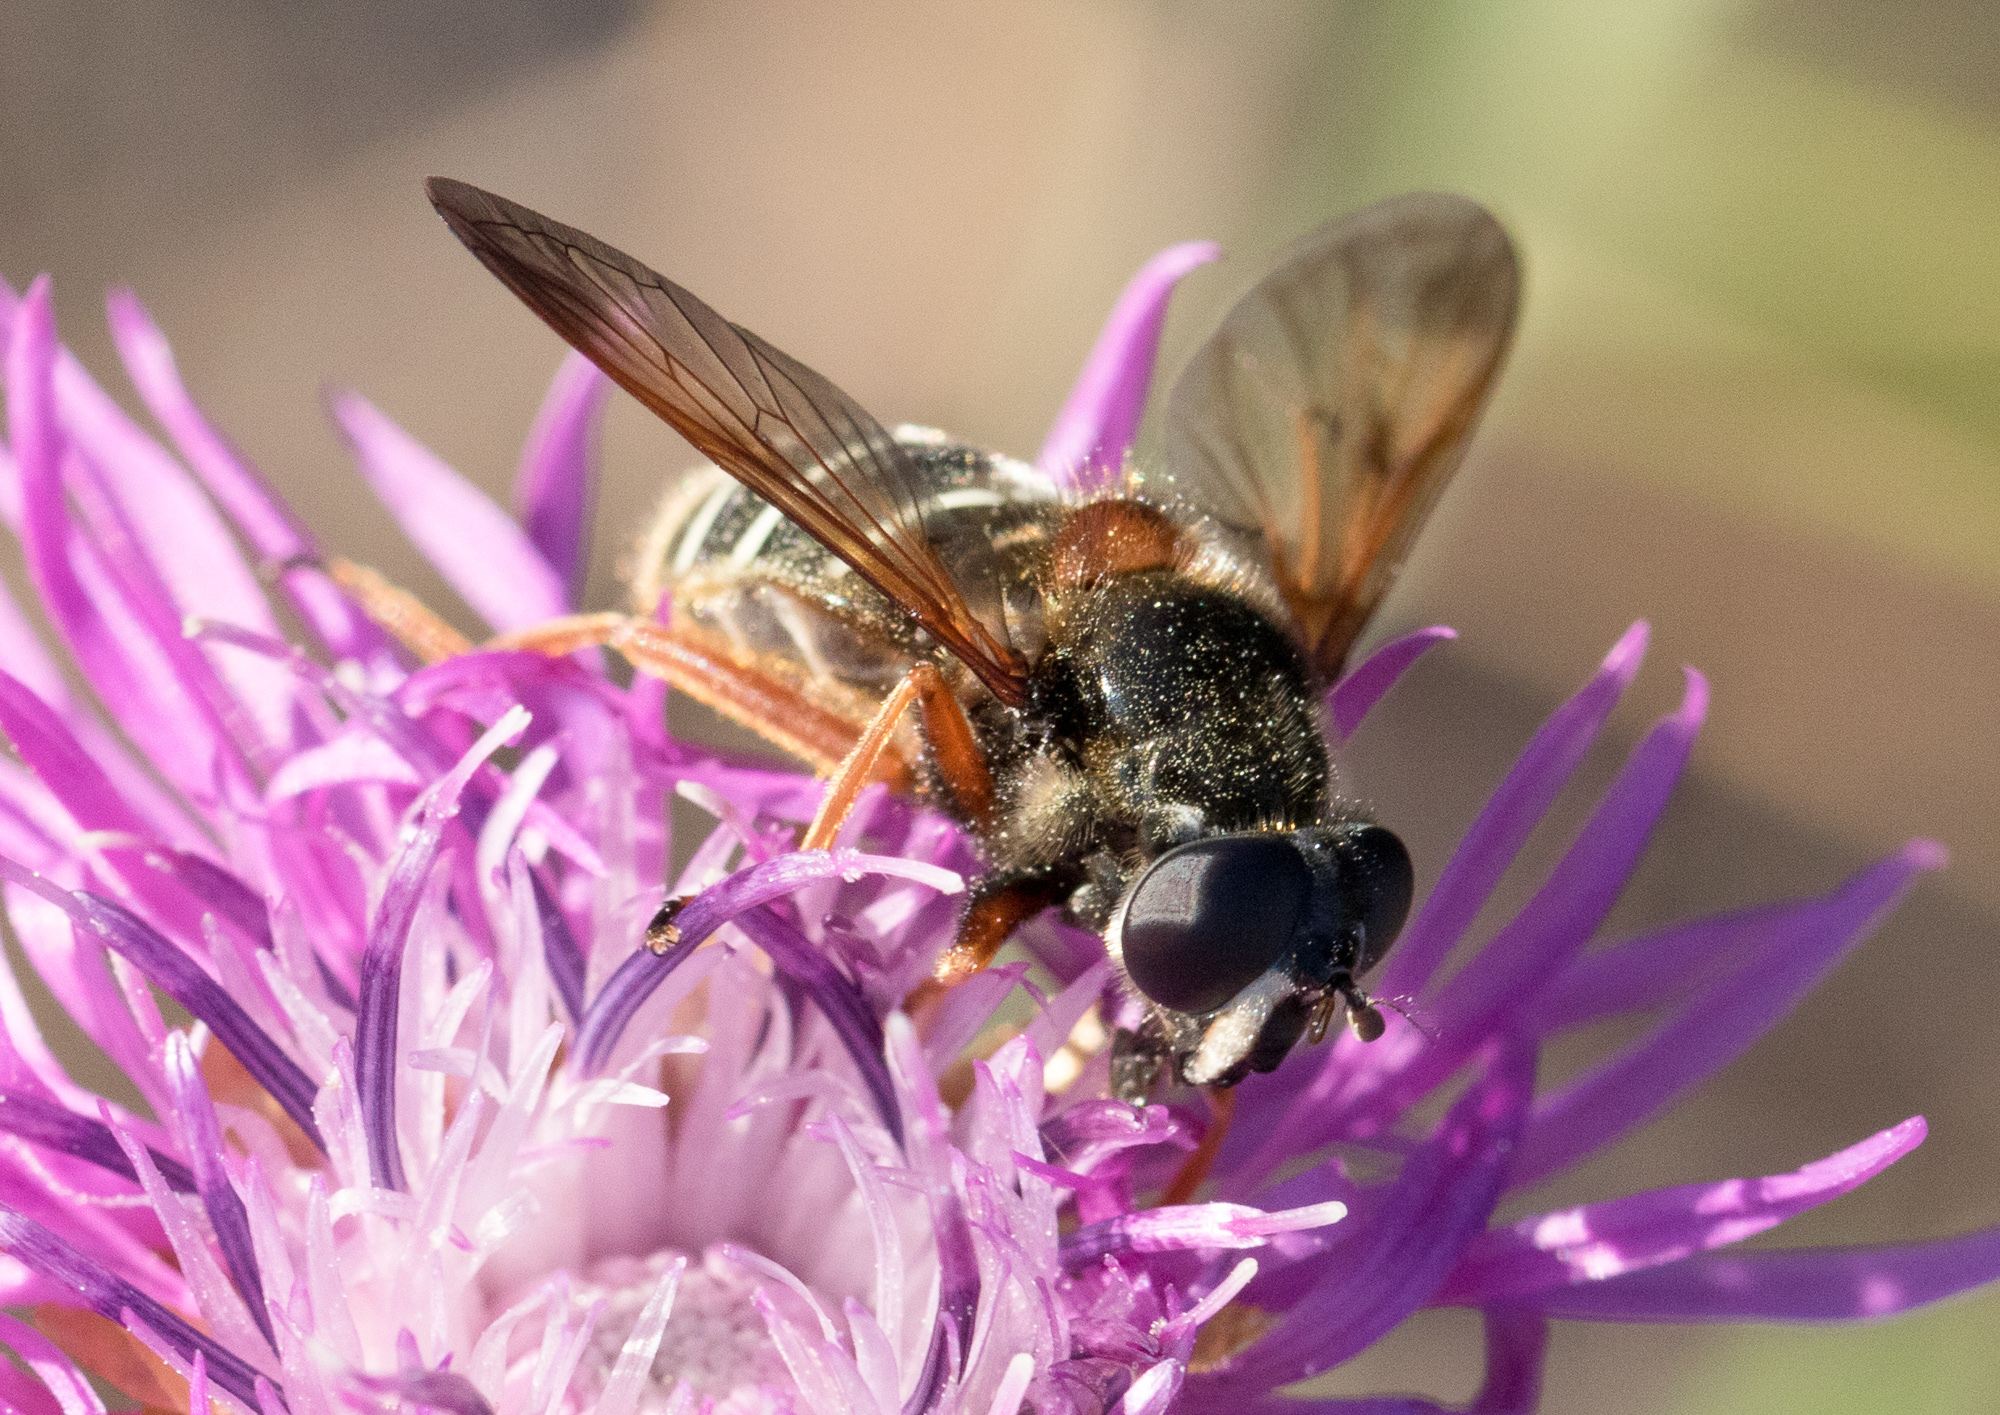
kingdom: Animalia
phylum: Arthropoda
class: Insecta
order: Diptera
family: Syrphidae
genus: Sericomyia
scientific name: Sericomyia lappona
